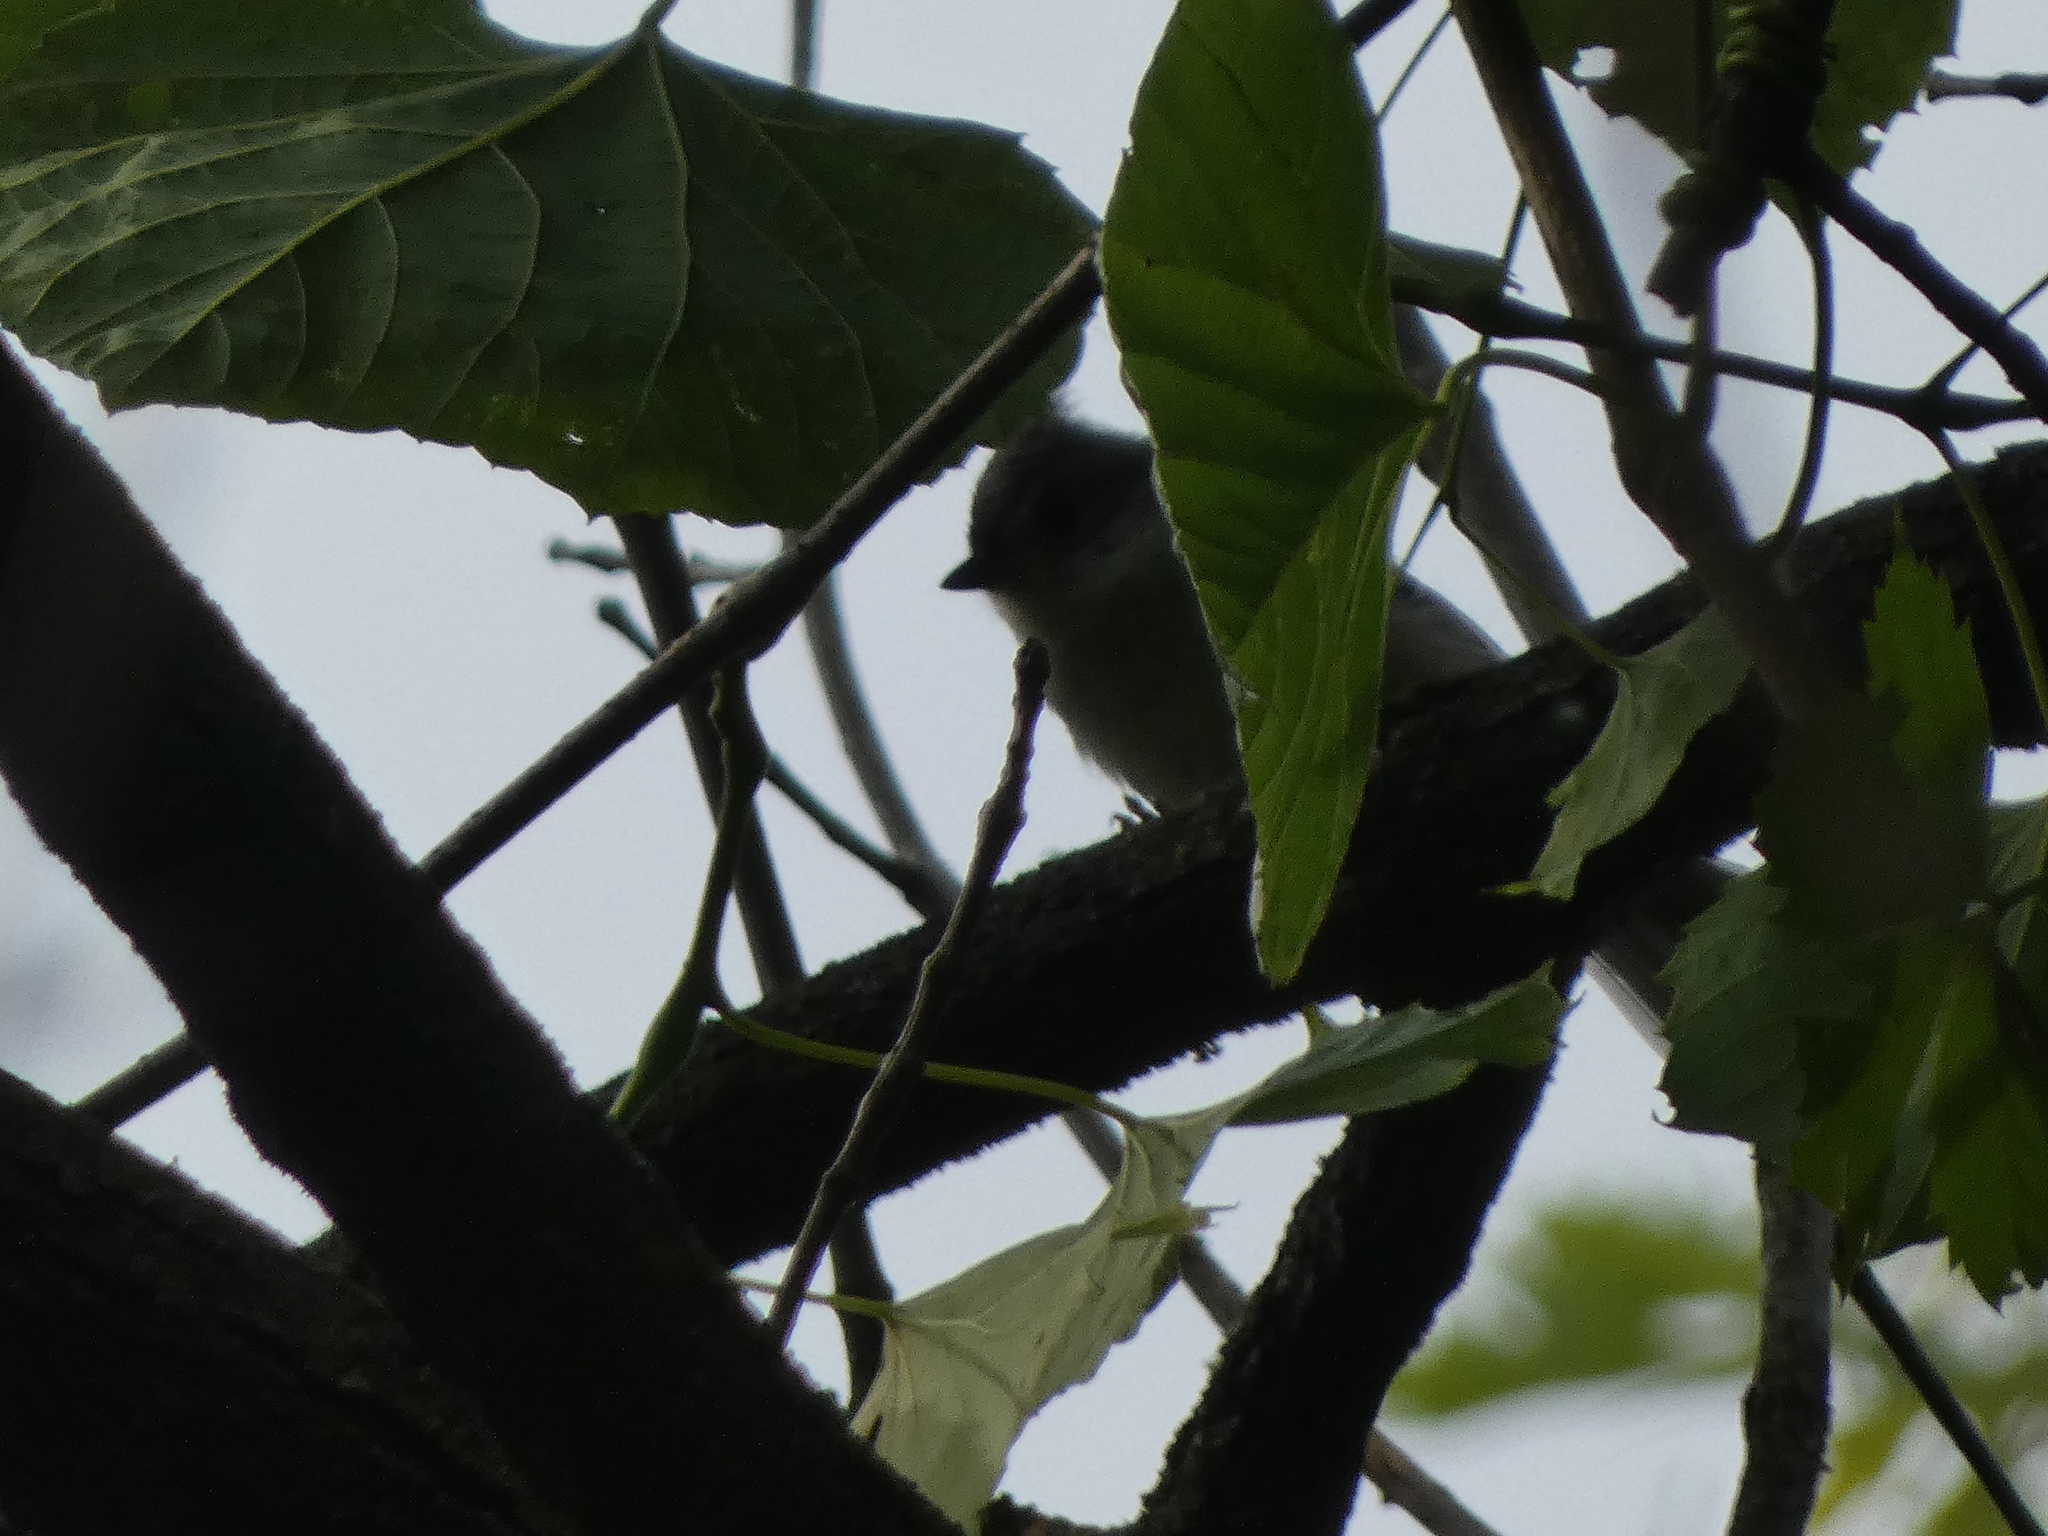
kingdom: Animalia
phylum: Chordata
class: Aves
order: Passeriformes
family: Paridae
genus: Baeolophus
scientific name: Baeolophus bicolor
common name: Tufted titmouse
